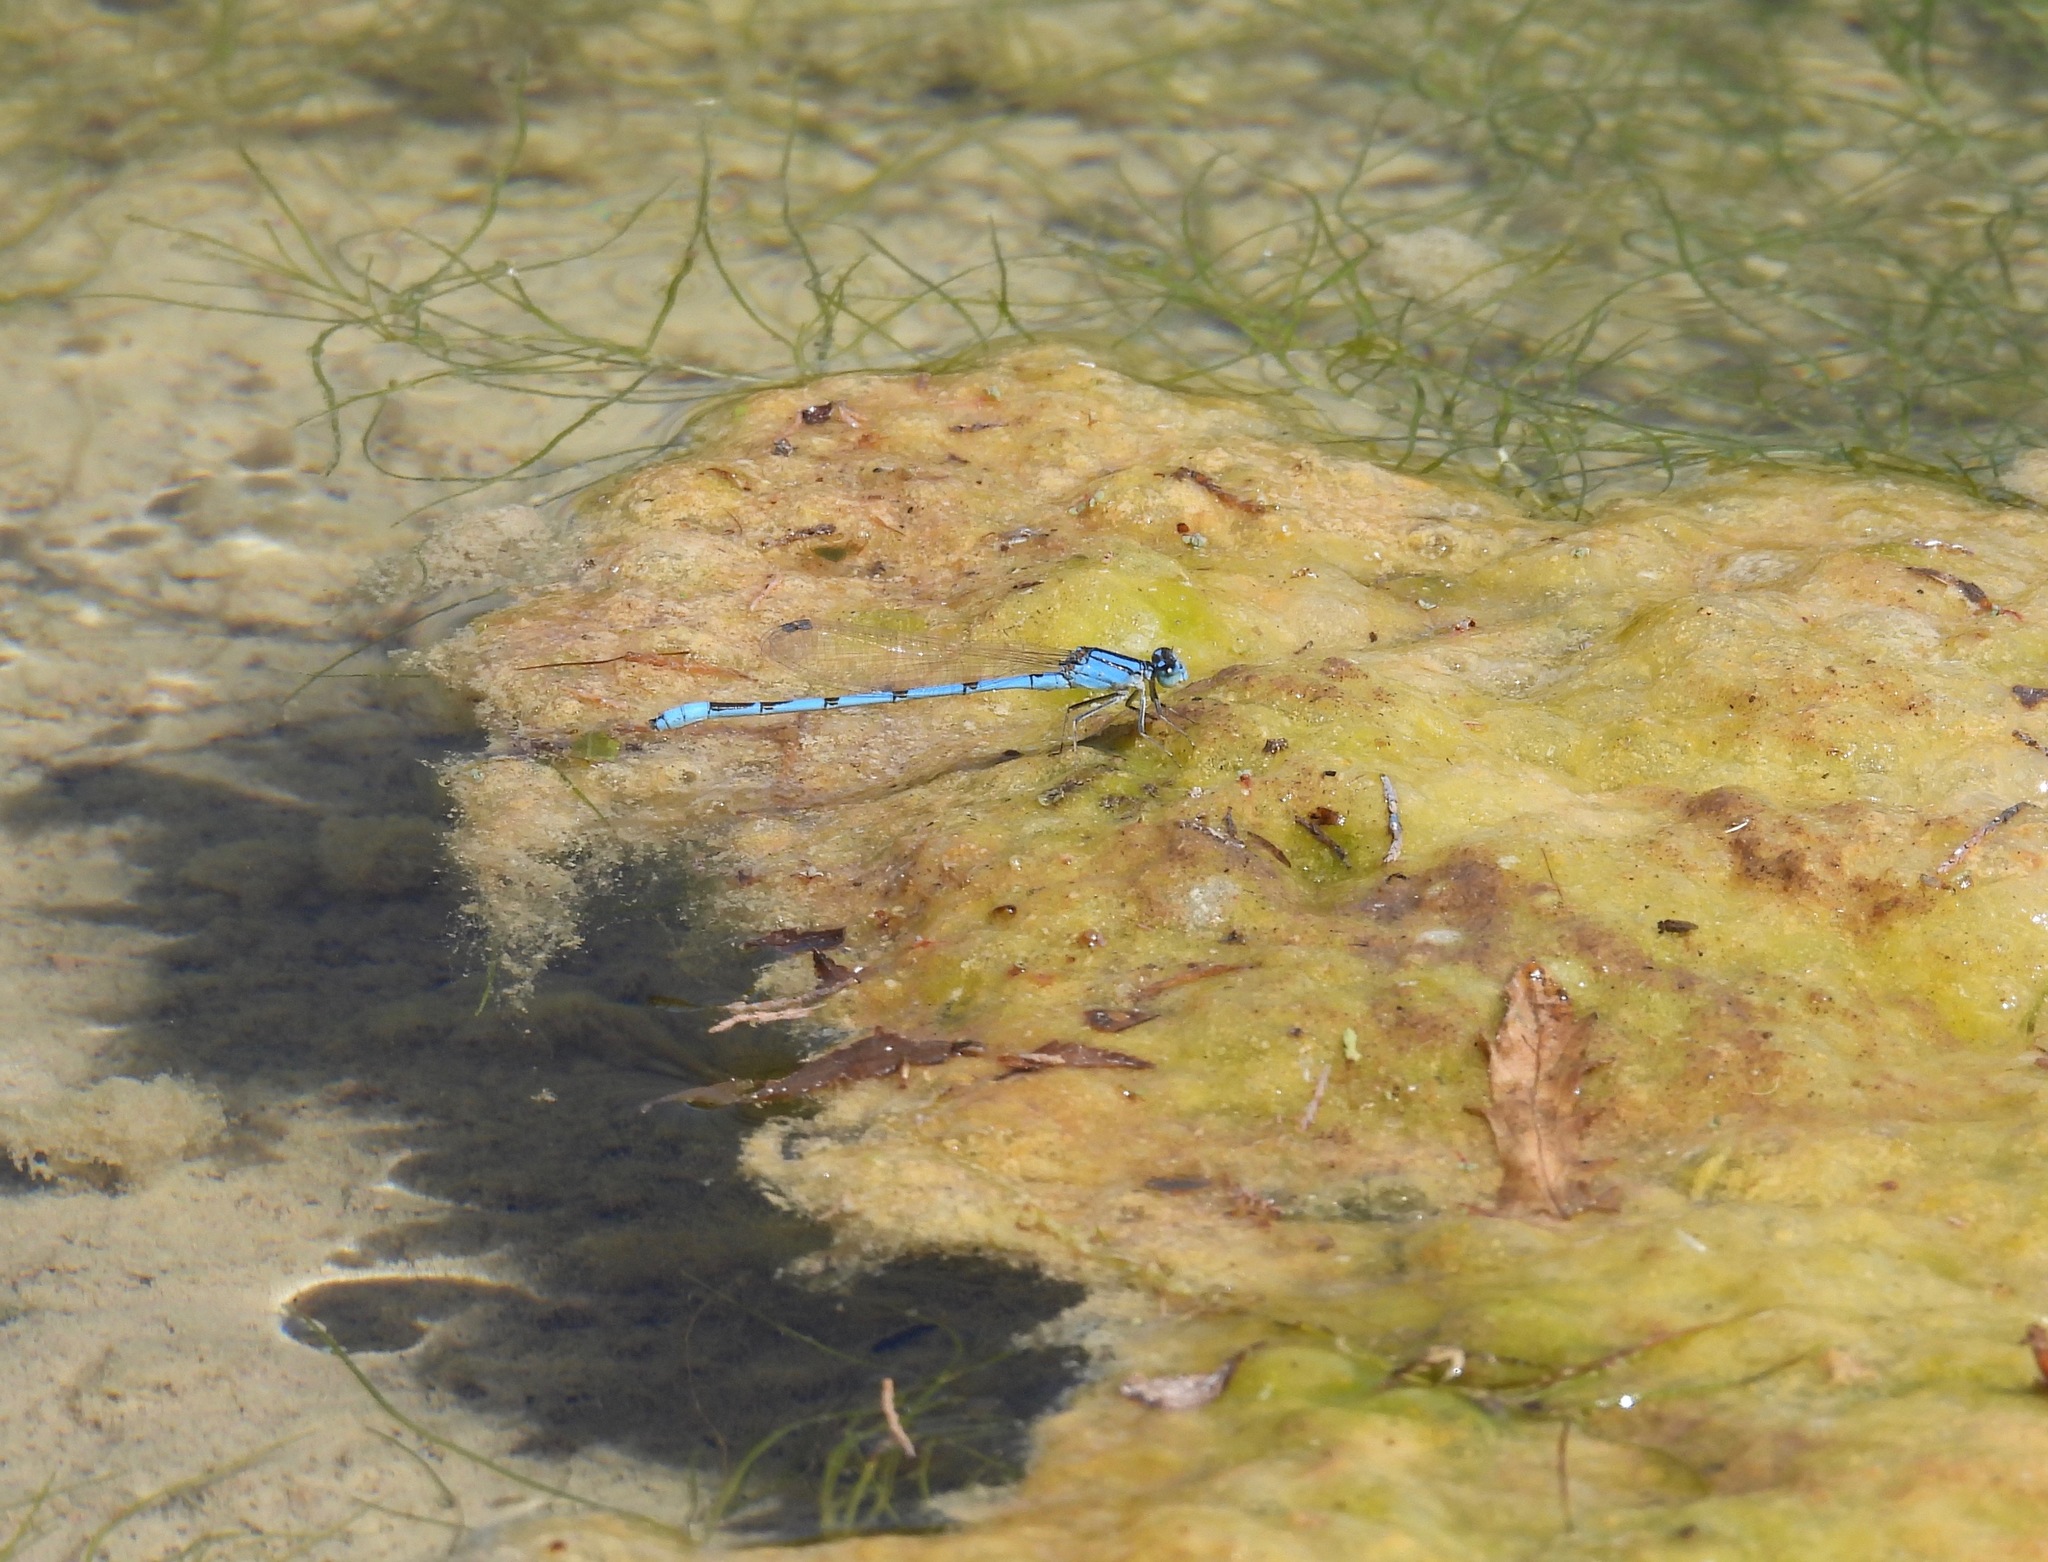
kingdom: Animalia
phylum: Arthropoda
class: Insecta
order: Odonata
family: Coenagrionidae
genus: Enallagma
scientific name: Enallagma civile
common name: Damselfly
